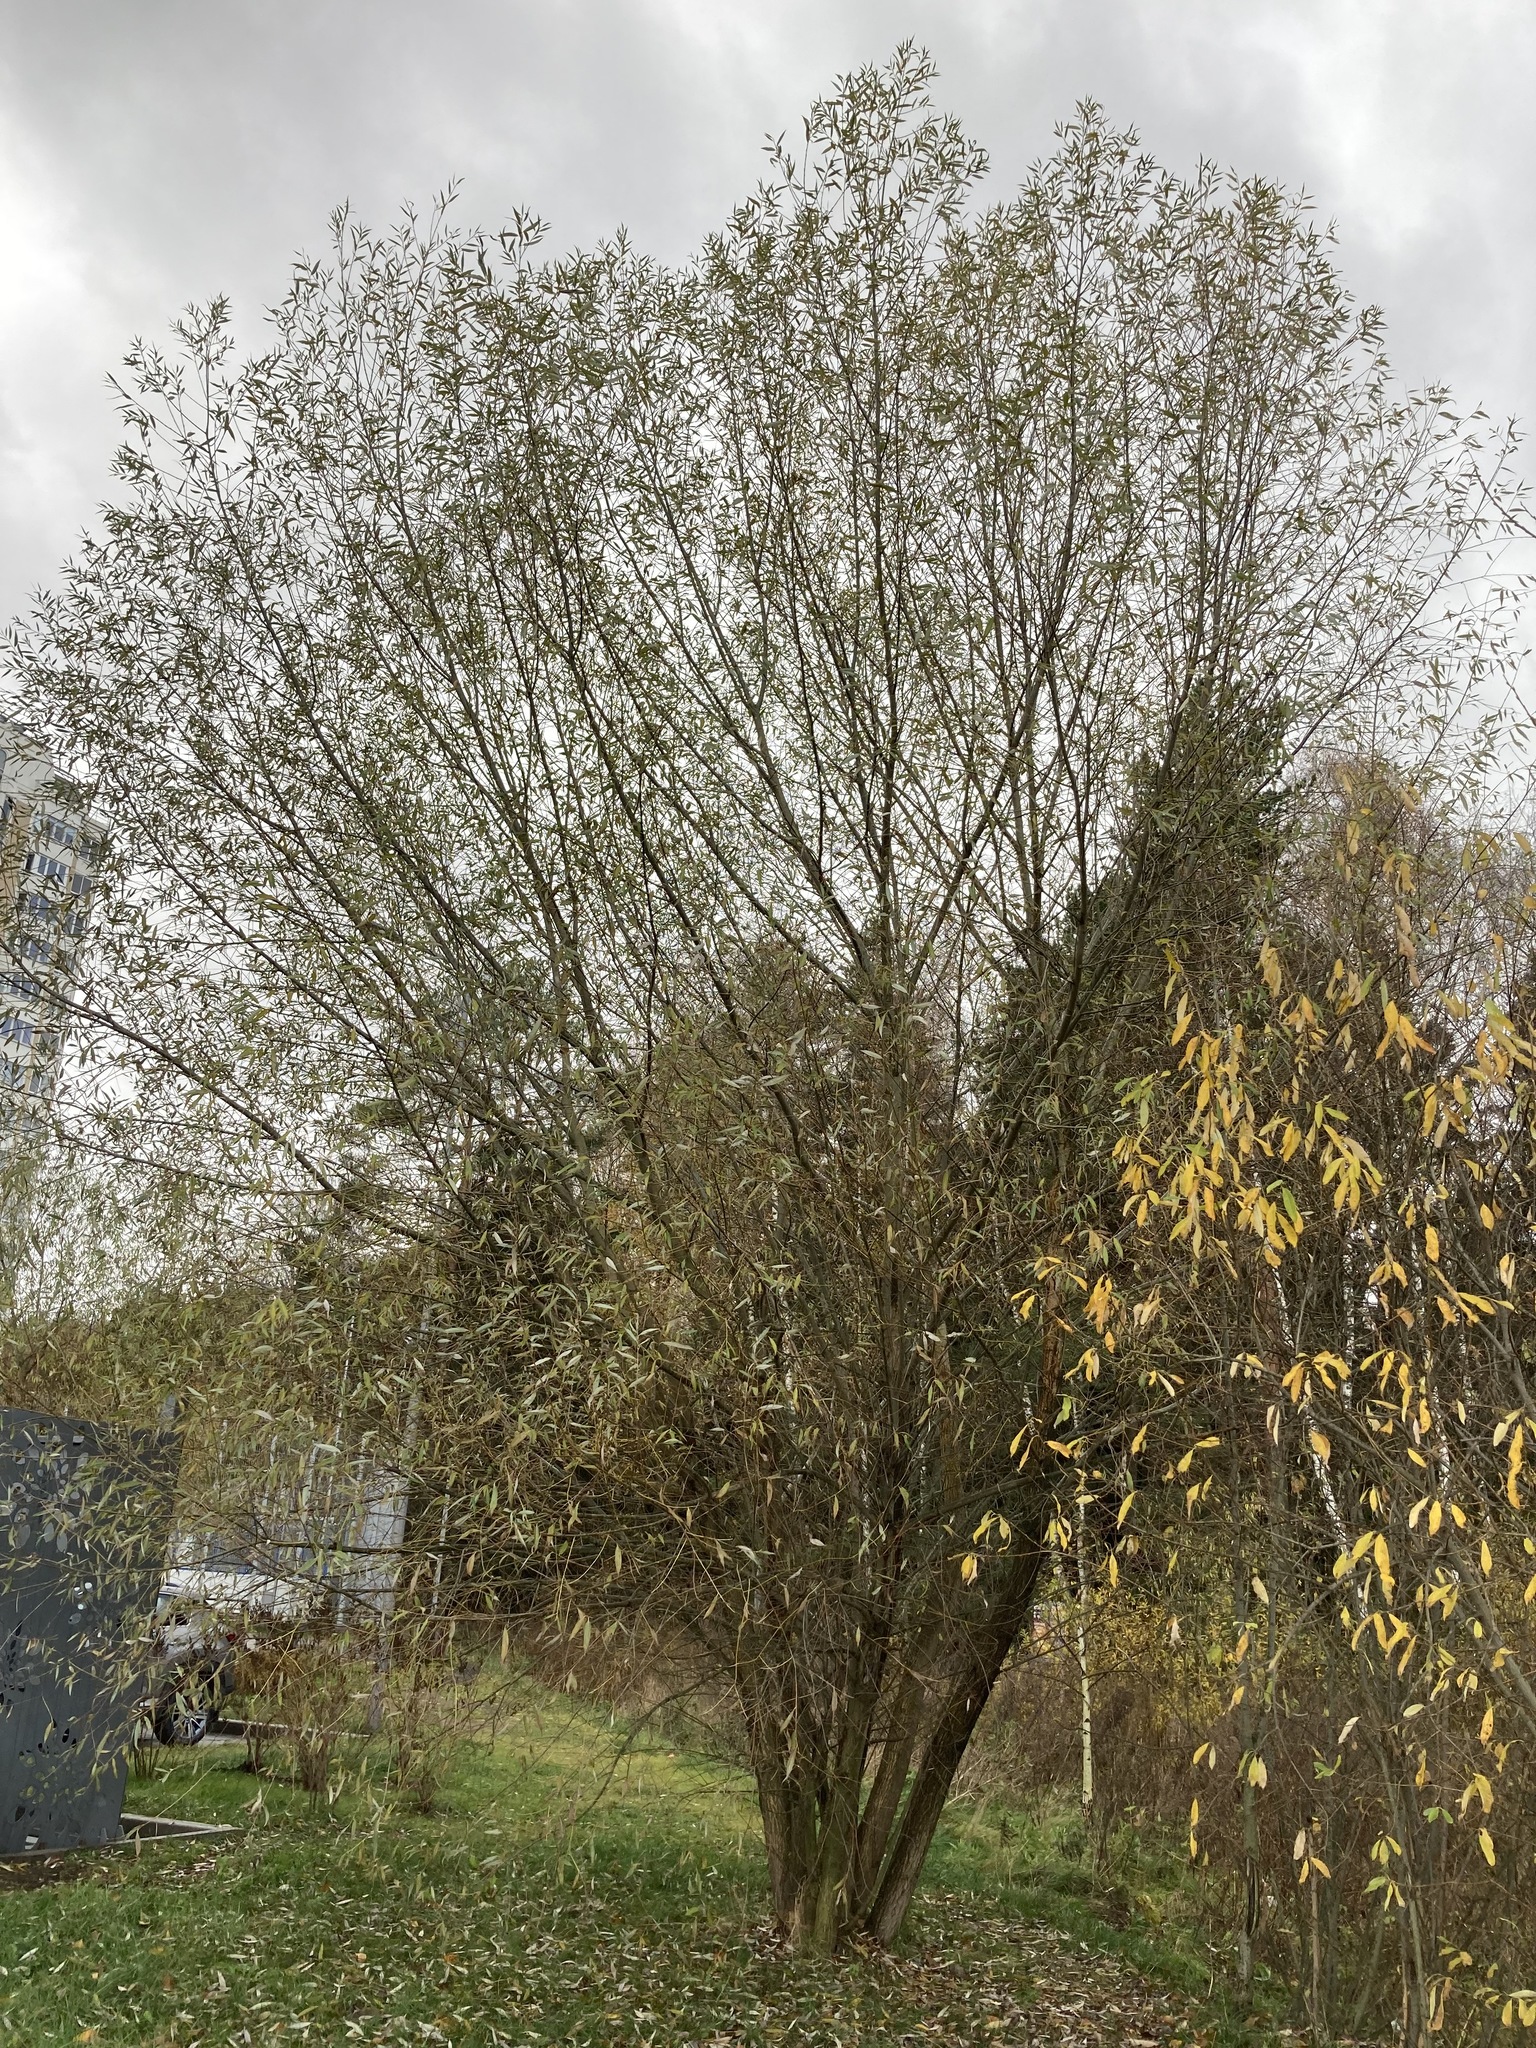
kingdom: Plantae
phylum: Tracheophyta
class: Magnoliopsida
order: Malpighiales
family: Salicaceae
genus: Salix
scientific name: Salix alba
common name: White willow
